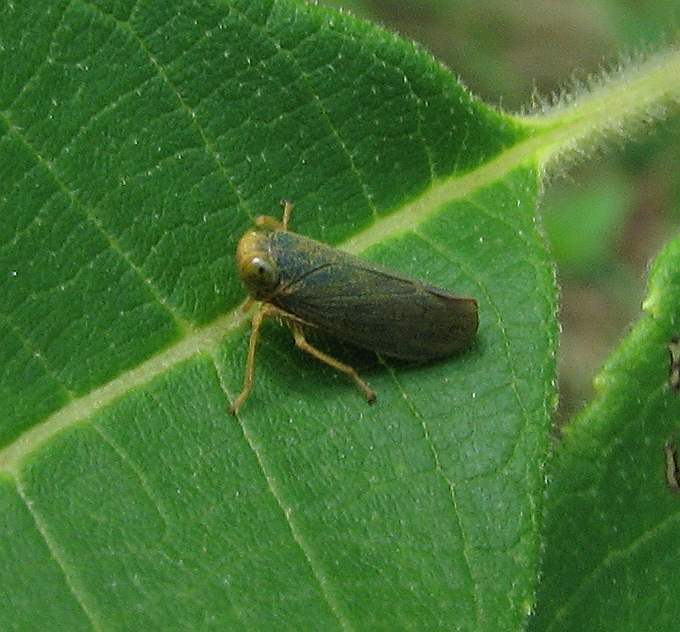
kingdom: Animalia
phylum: Arthropoda
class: Insecta
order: Hemiptera
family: Cicadellidae
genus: Jikradia
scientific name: Jikradia olitoria
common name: Coppery leafhopper
